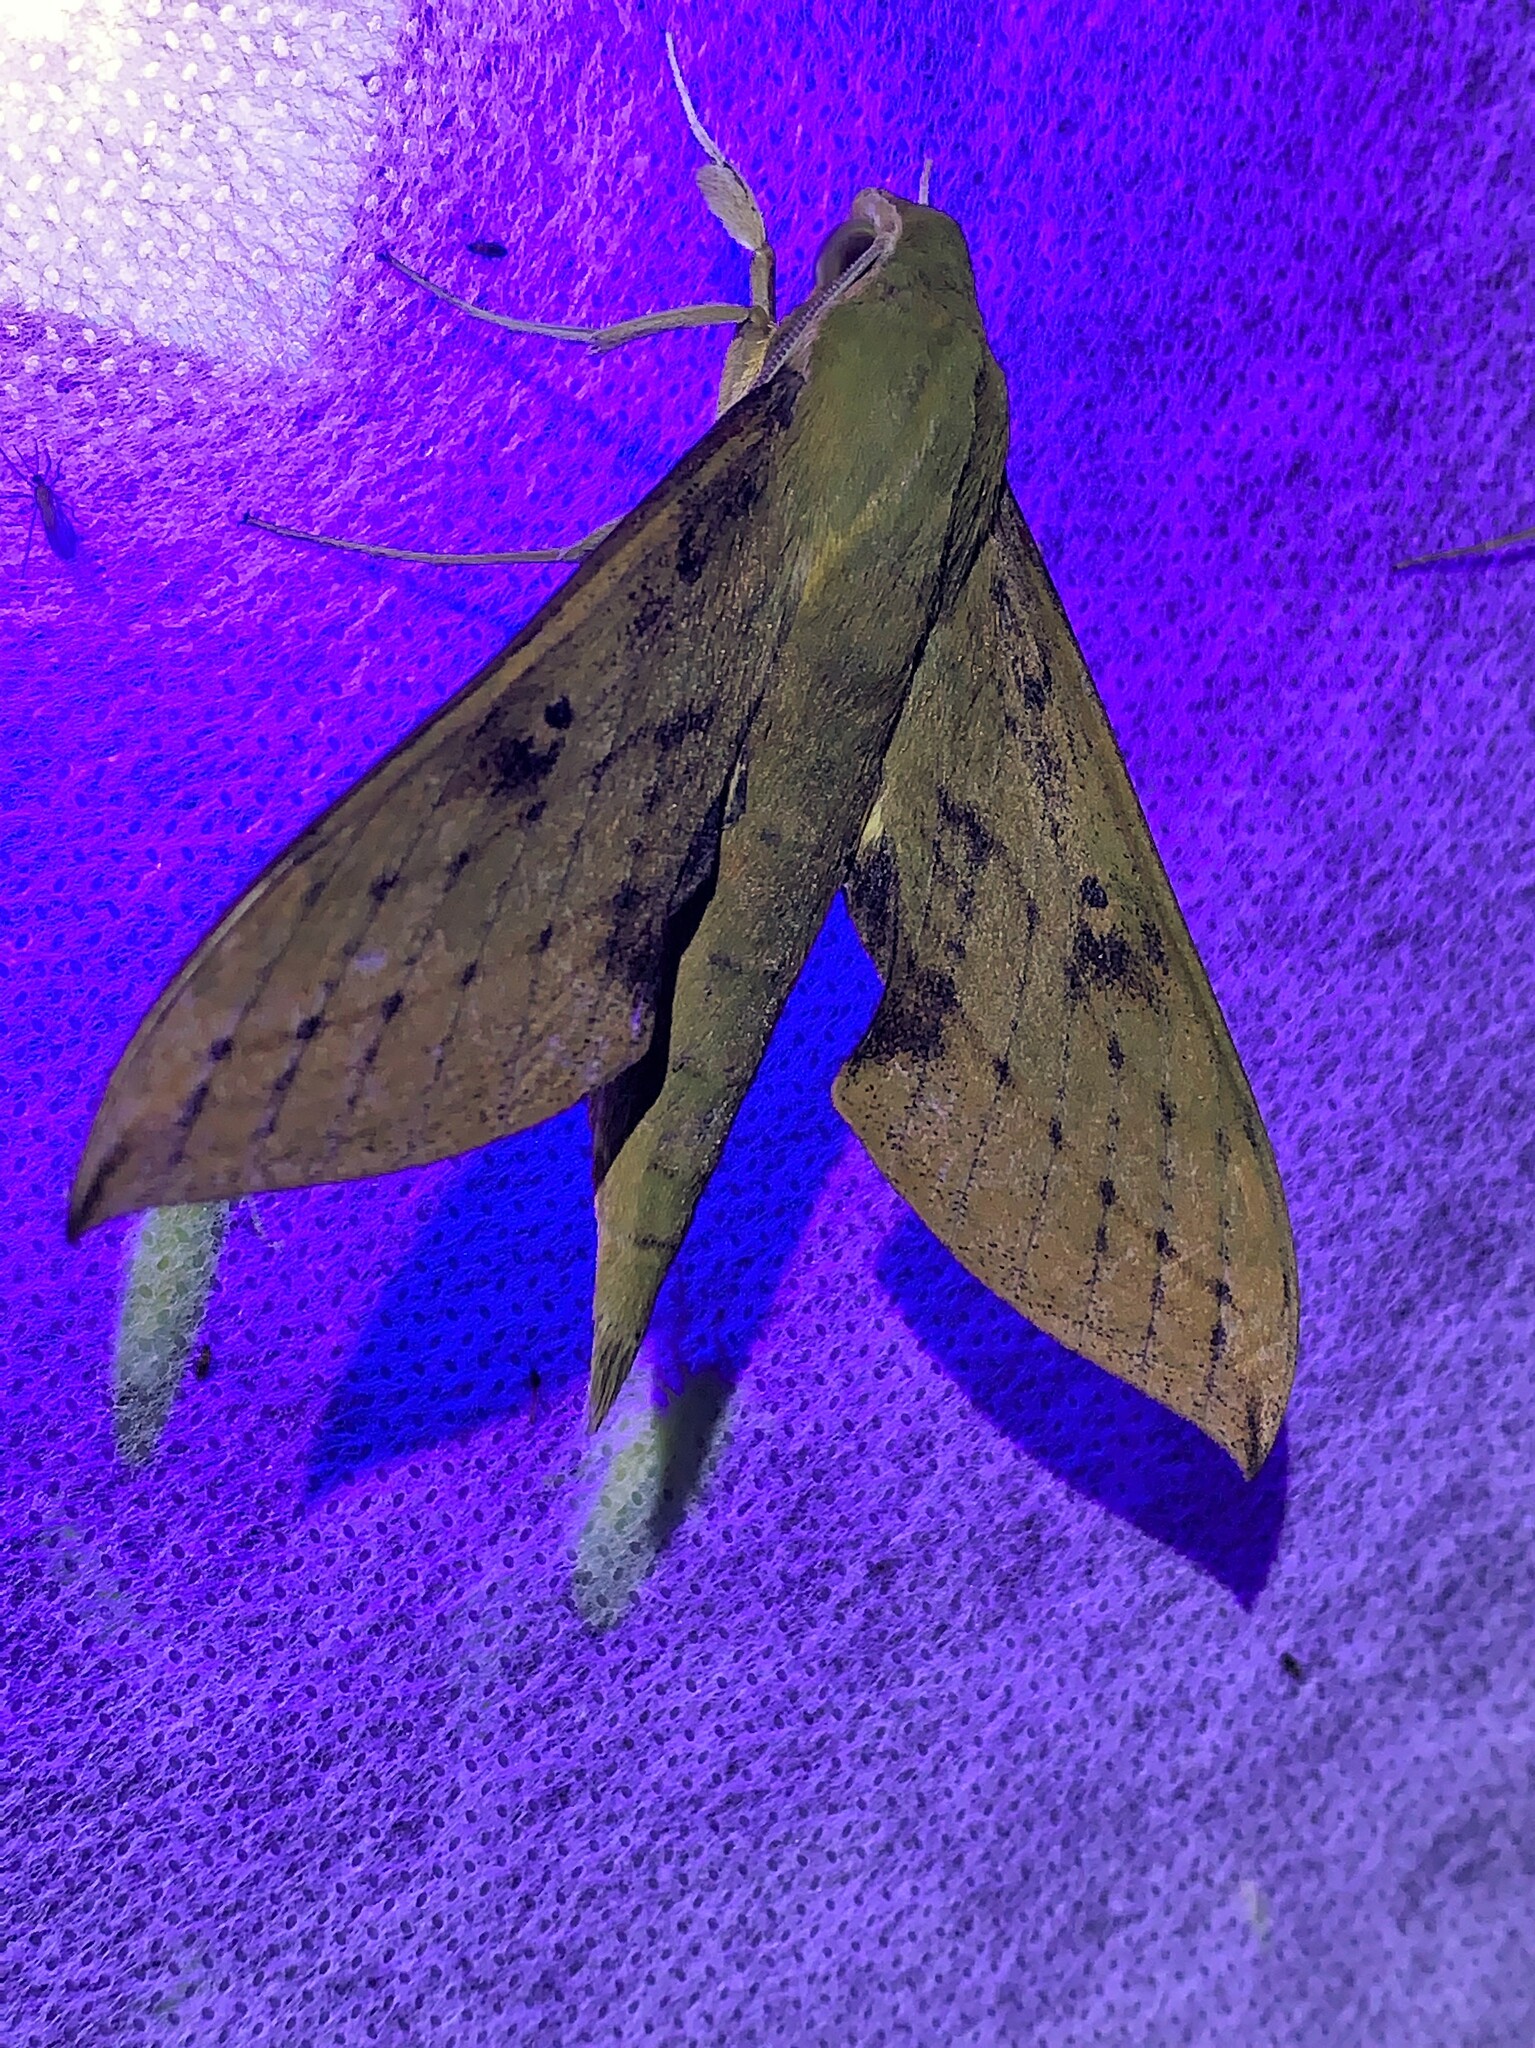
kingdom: Animalia
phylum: Arthropoda
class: Insecta
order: Lepidoptera
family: Sphingidae
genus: Xylophanes
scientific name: Xylophanes colombiana
